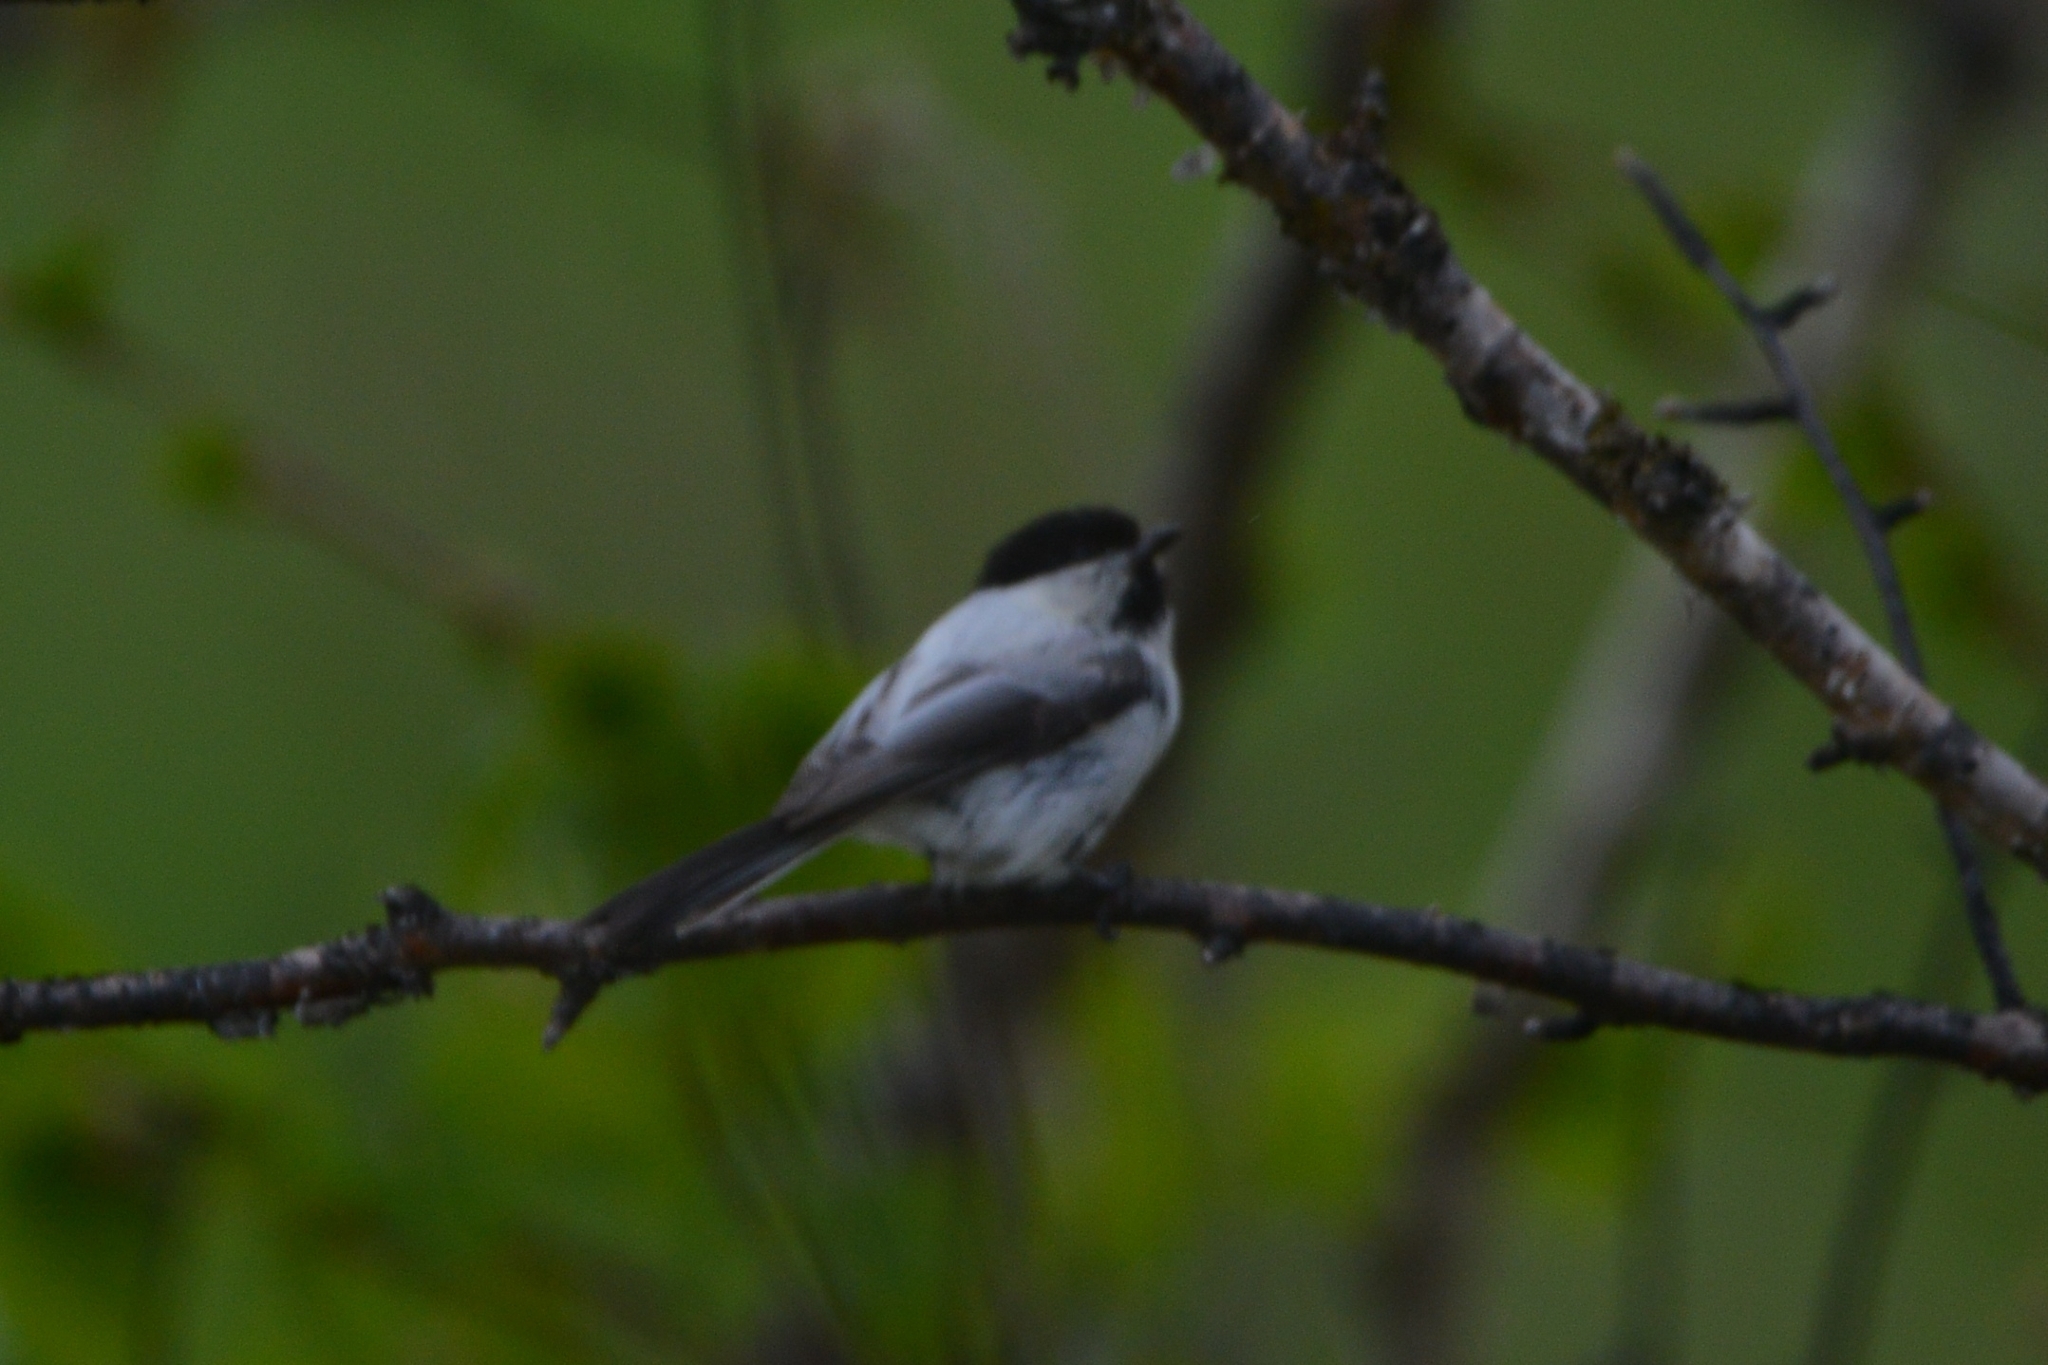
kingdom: Animalia
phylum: Chordata
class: Aves
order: Passeriformes
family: Paridae
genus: Poecile
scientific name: Poecile montanus
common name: Willow tit
